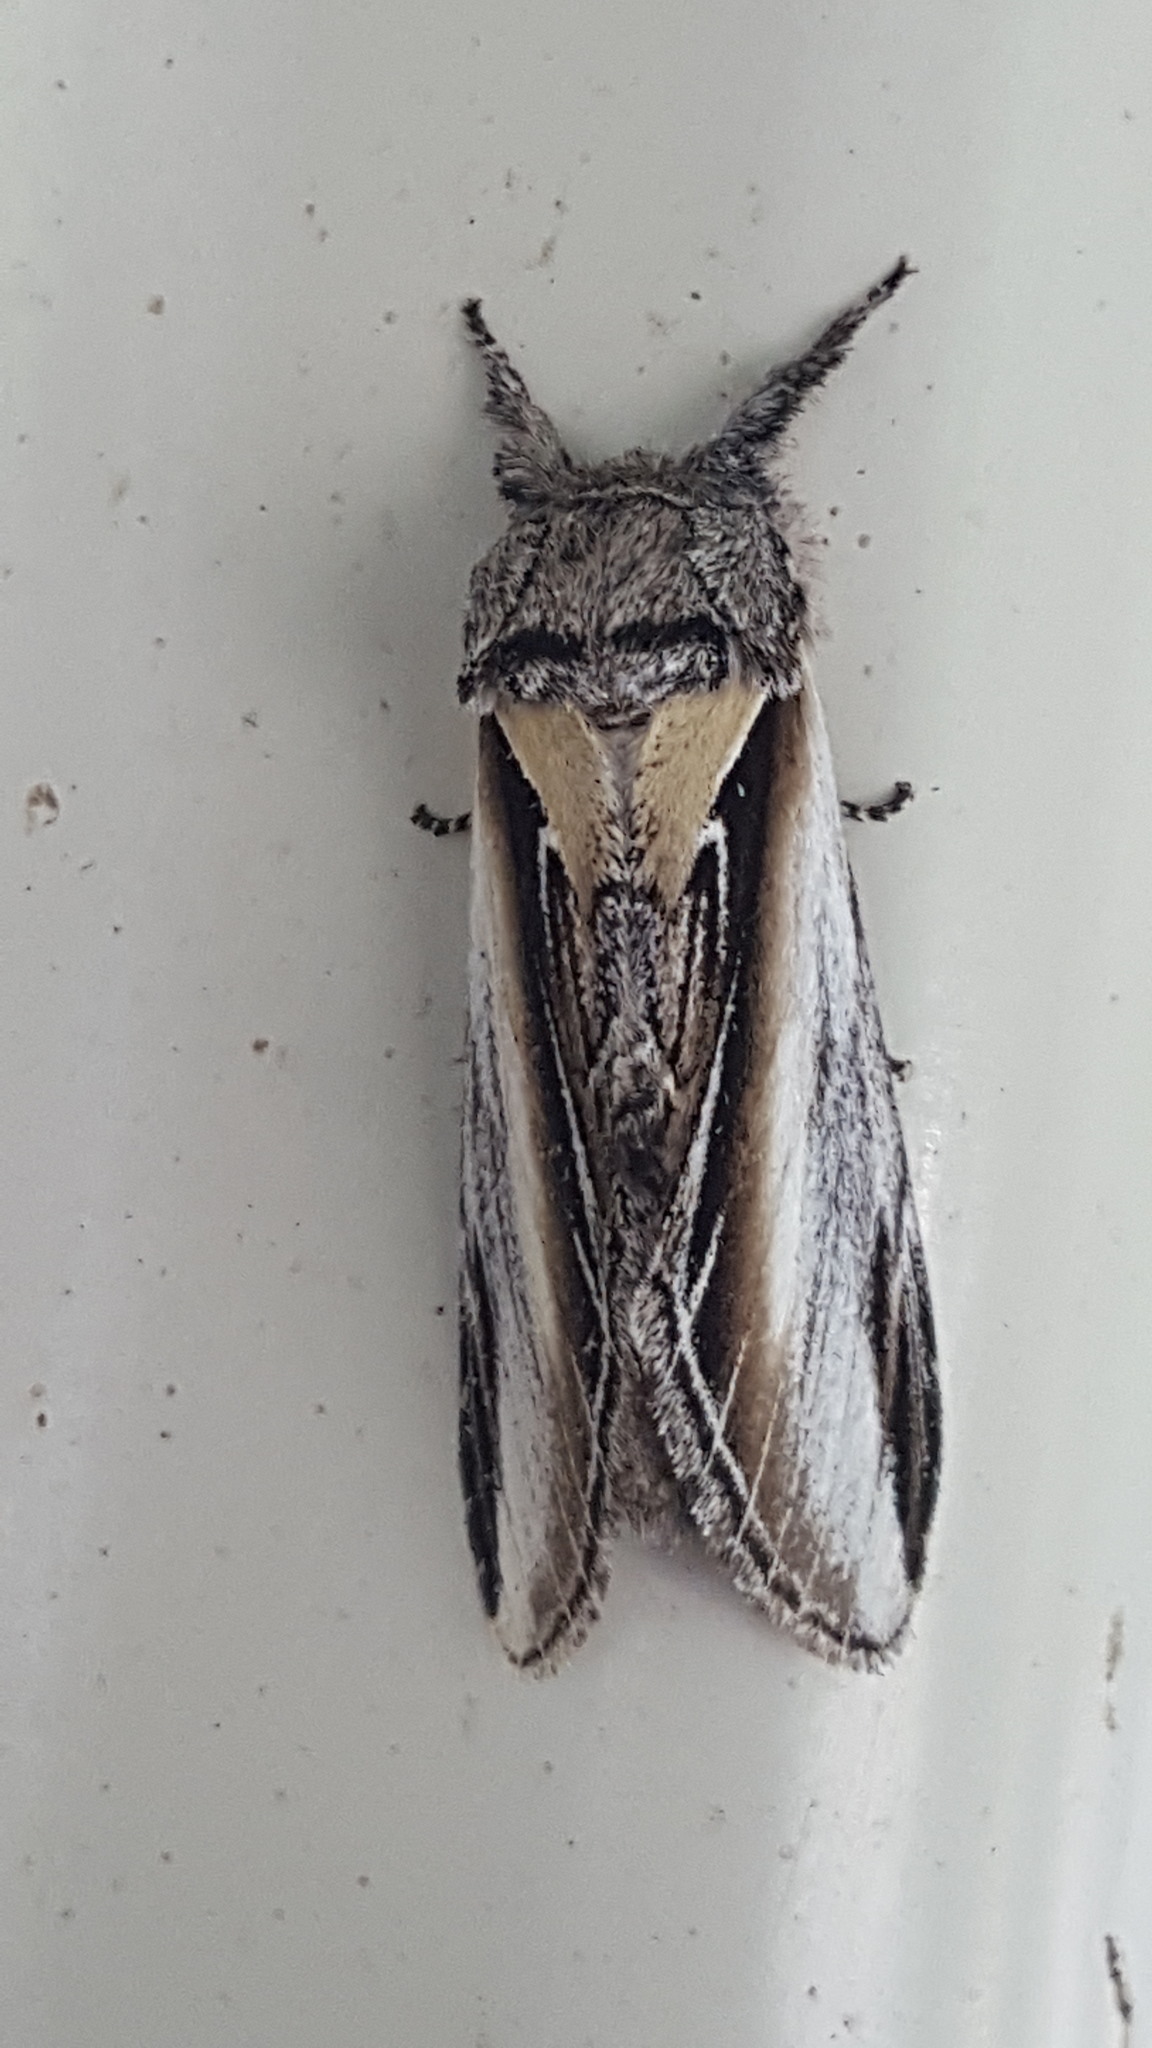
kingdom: Animalia
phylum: Arthropoda
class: Insecta
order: Lepidoptera
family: Notodontidae
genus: Pheosia
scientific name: Pheosia rimosa
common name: Black-rimmed prominent
